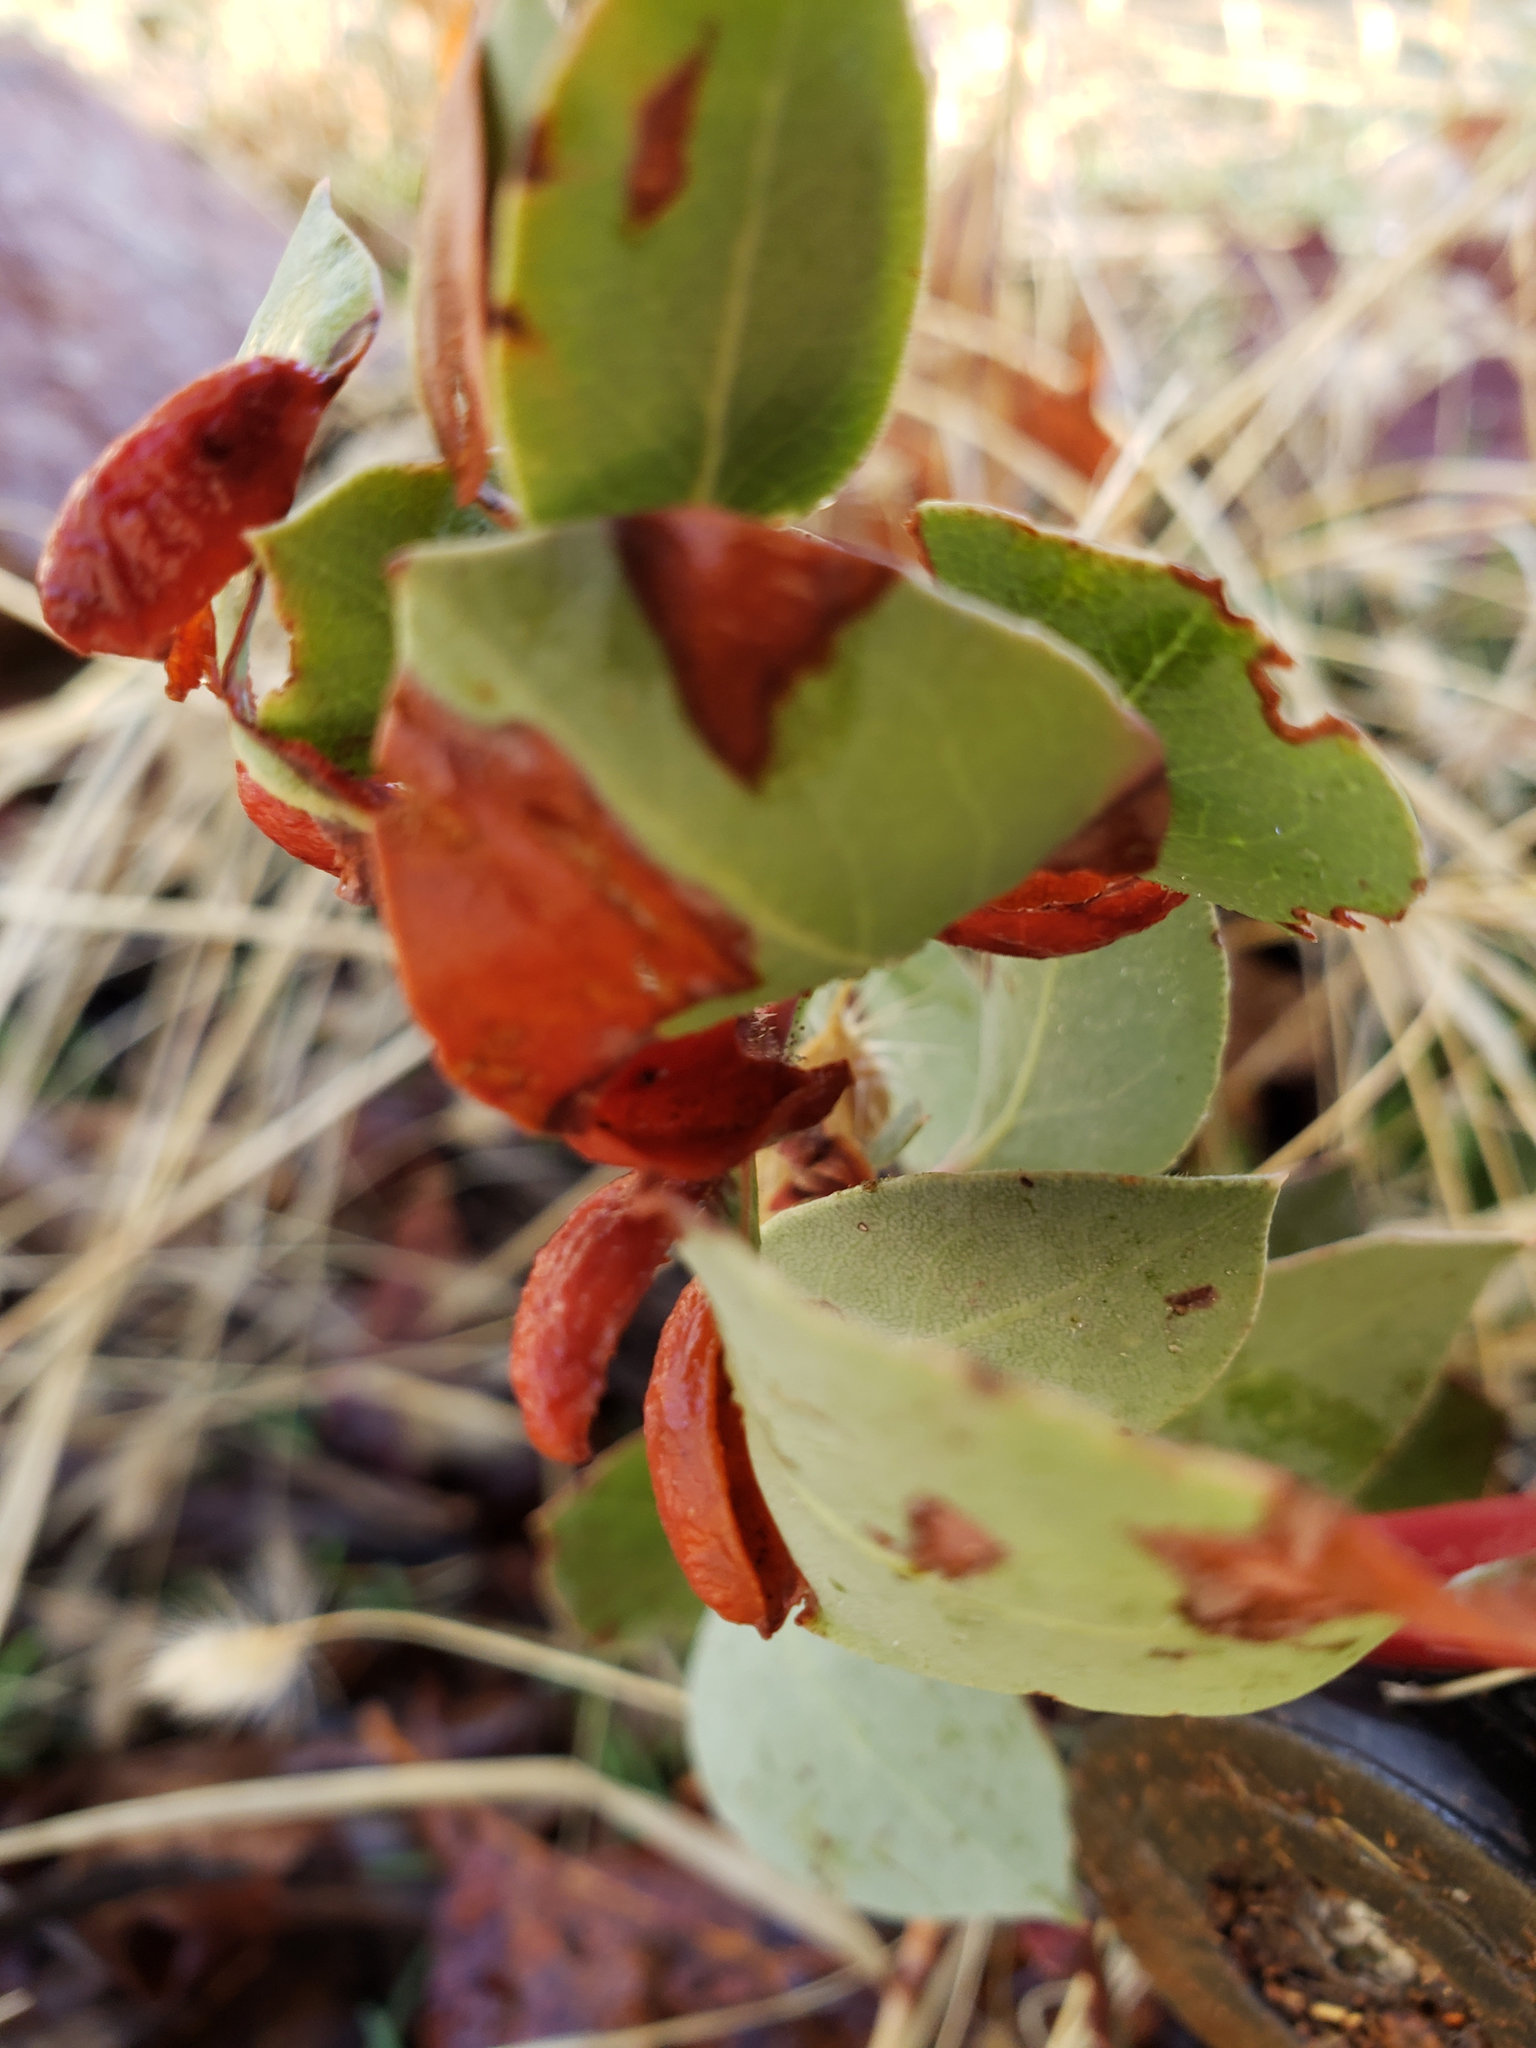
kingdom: Animalia
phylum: Arthropoda
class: Insecta
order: Hemiptera
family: Aphididae
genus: Tamalia
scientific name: Tamalia coweni
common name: Manzanita leafgall aphid
